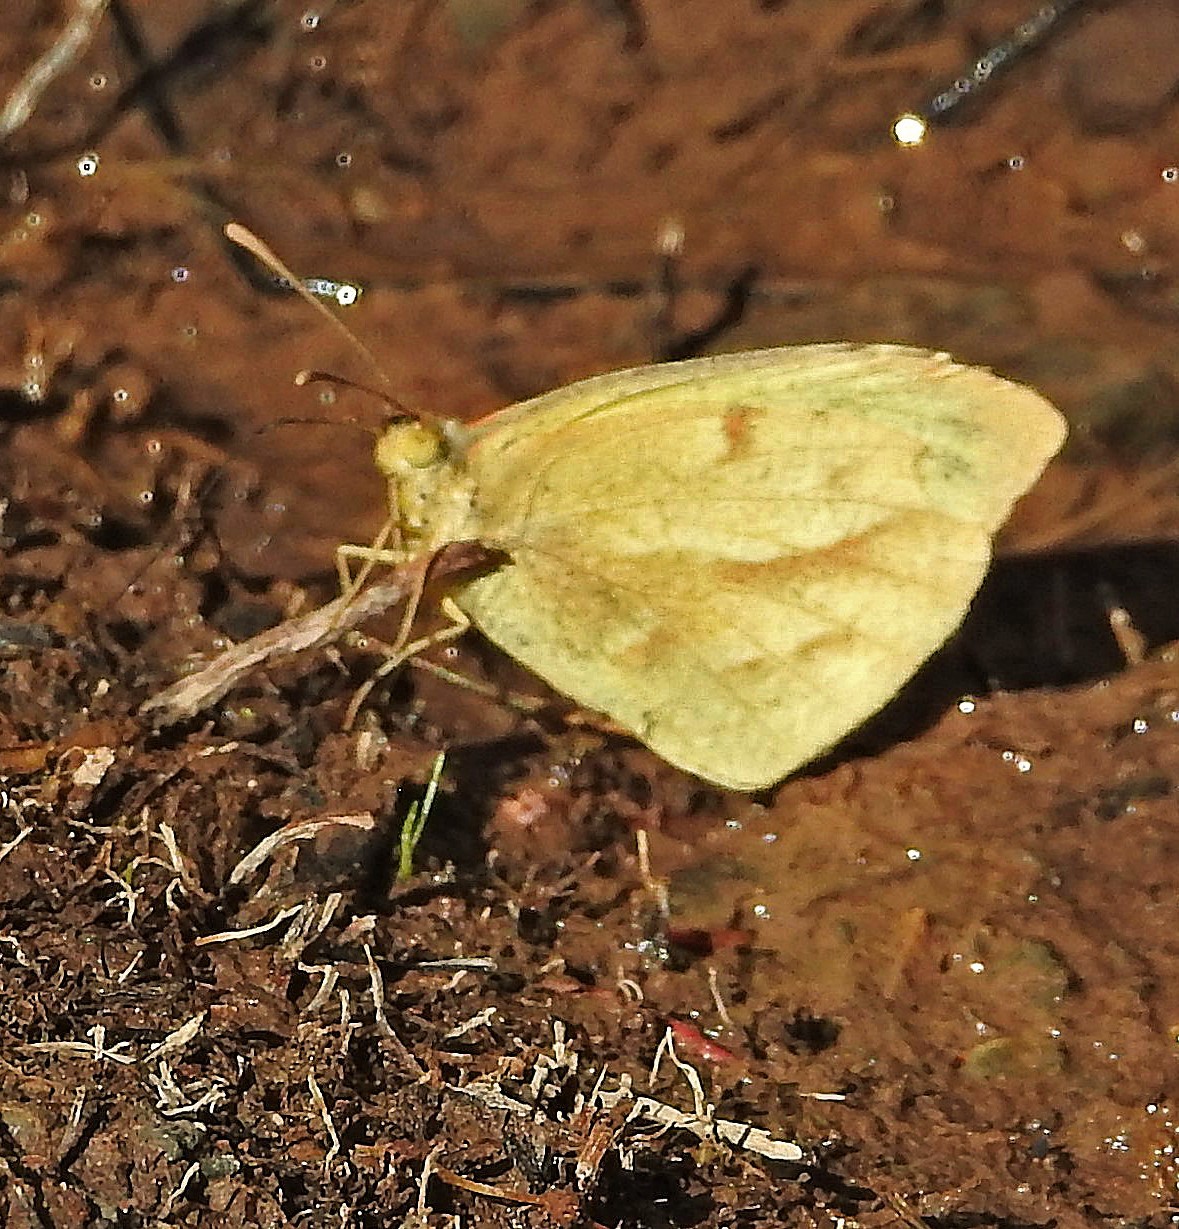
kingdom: Animalia
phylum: Arthropoda
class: Insecta
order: Lepidoptera
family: Pieridae
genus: Teriocolias
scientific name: Teriocolias zelia
